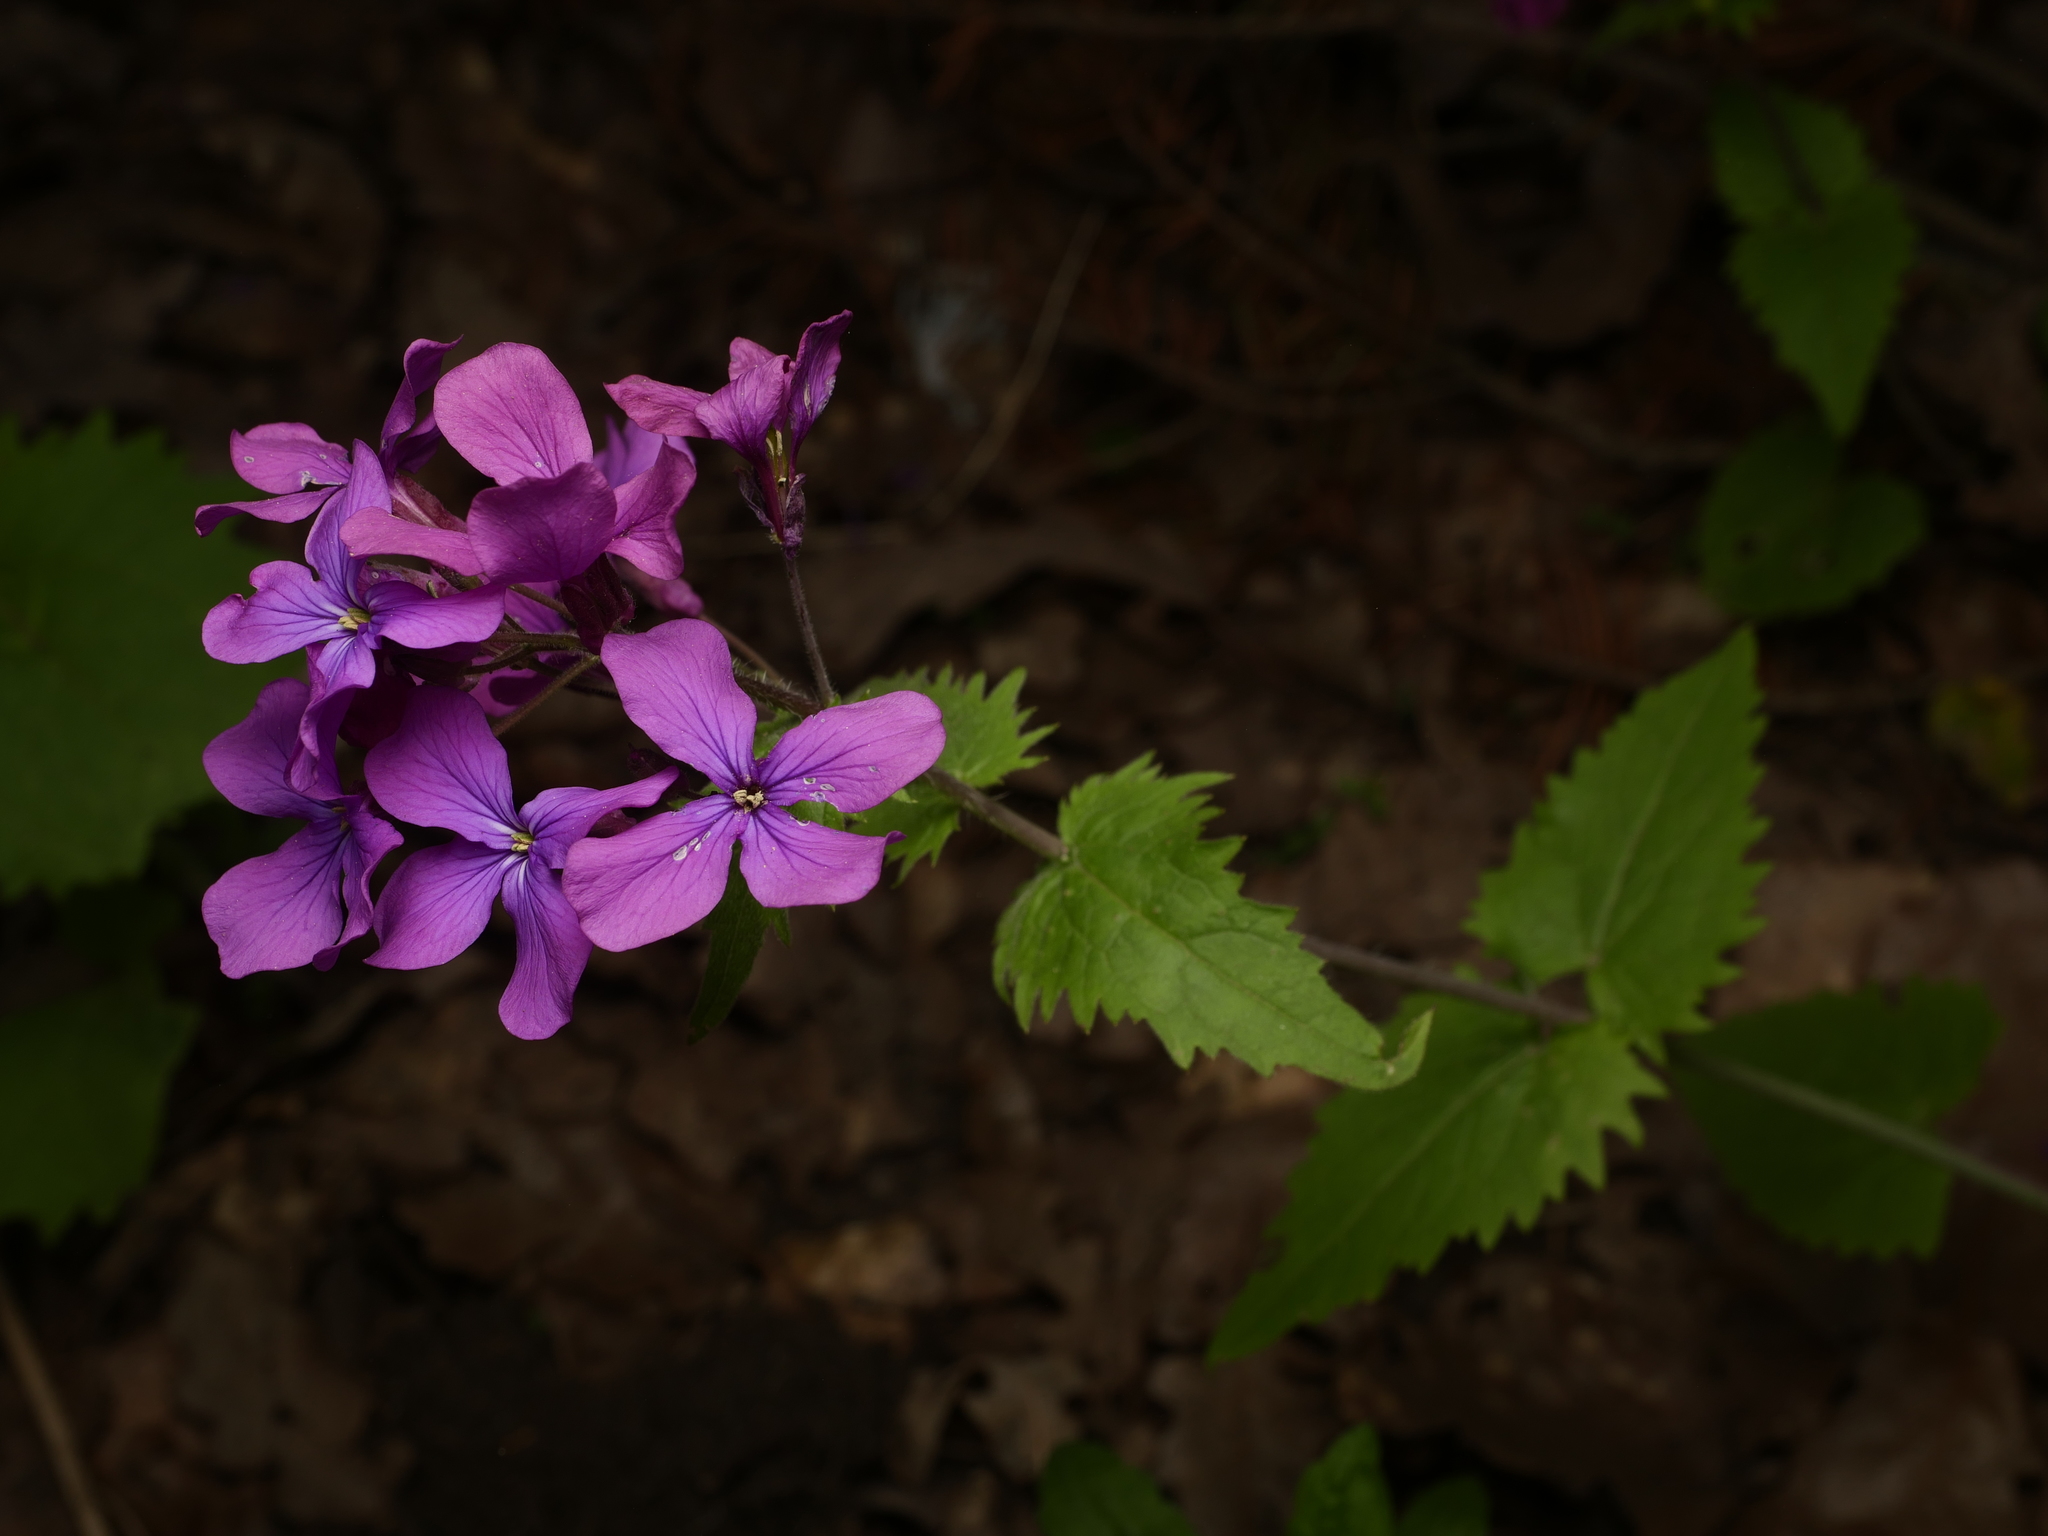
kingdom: Plantae
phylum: Tracheophyta
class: Magnoliopsida
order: Brassicales
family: Brassicaceae
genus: Lunaria
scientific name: Lunaria annua
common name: Honesty
